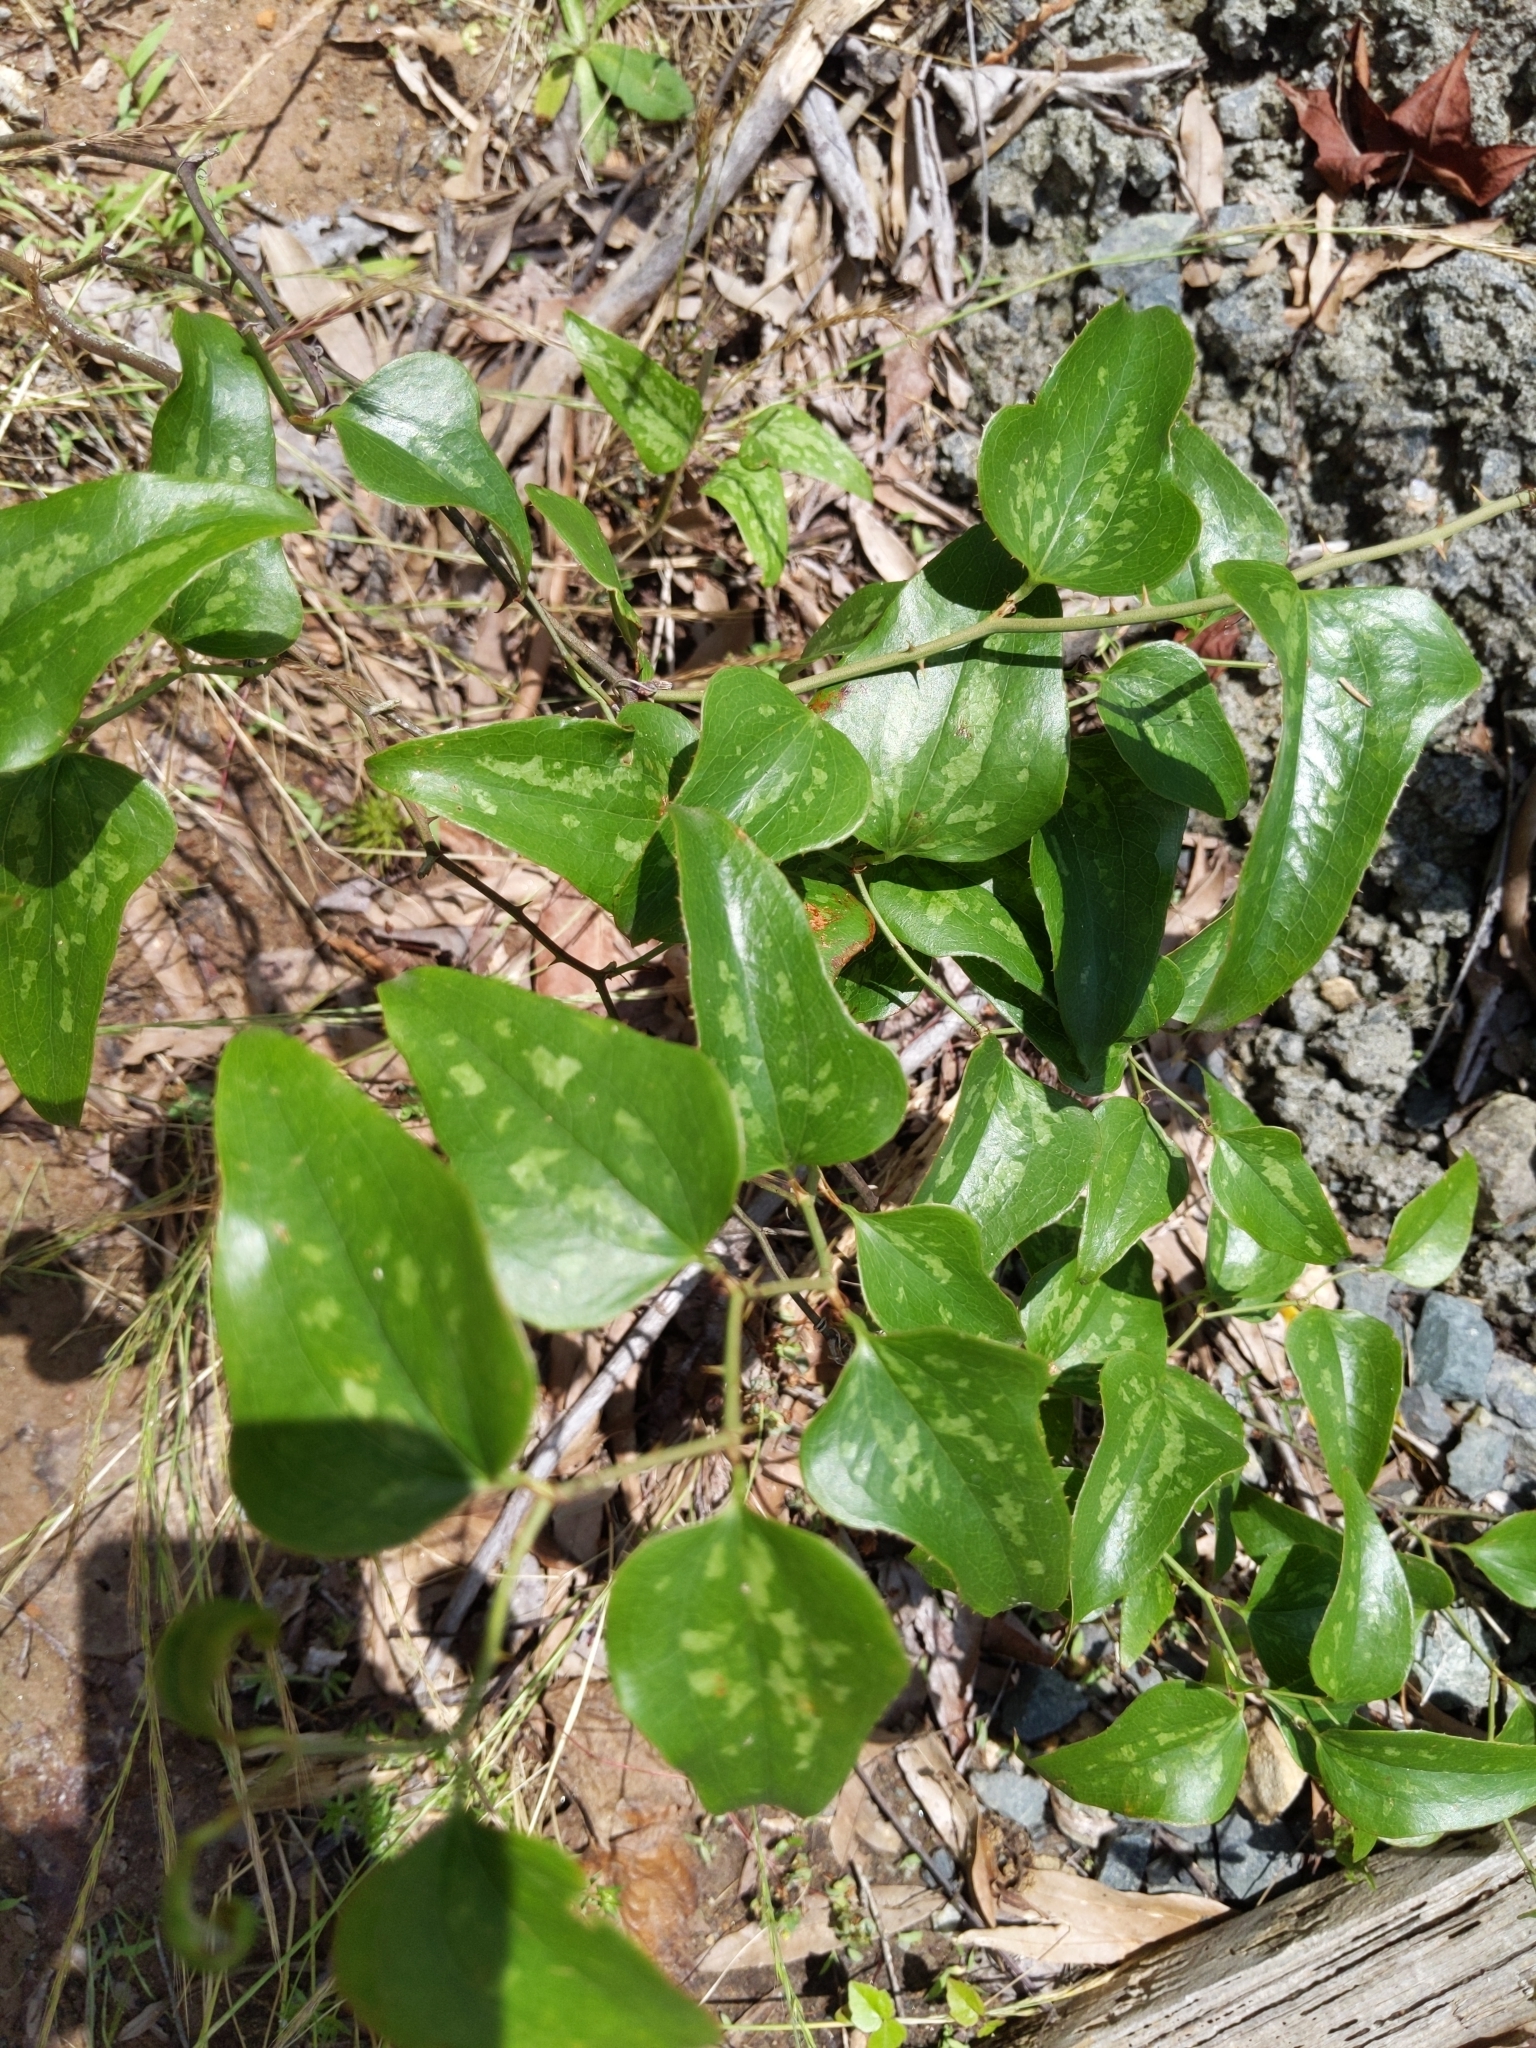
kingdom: Plantae
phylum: Tracheophyta
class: Liliopsida
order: Liliales
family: Smilacaceae
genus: Smilax
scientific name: Smilax bona-nox
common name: Catbrier
